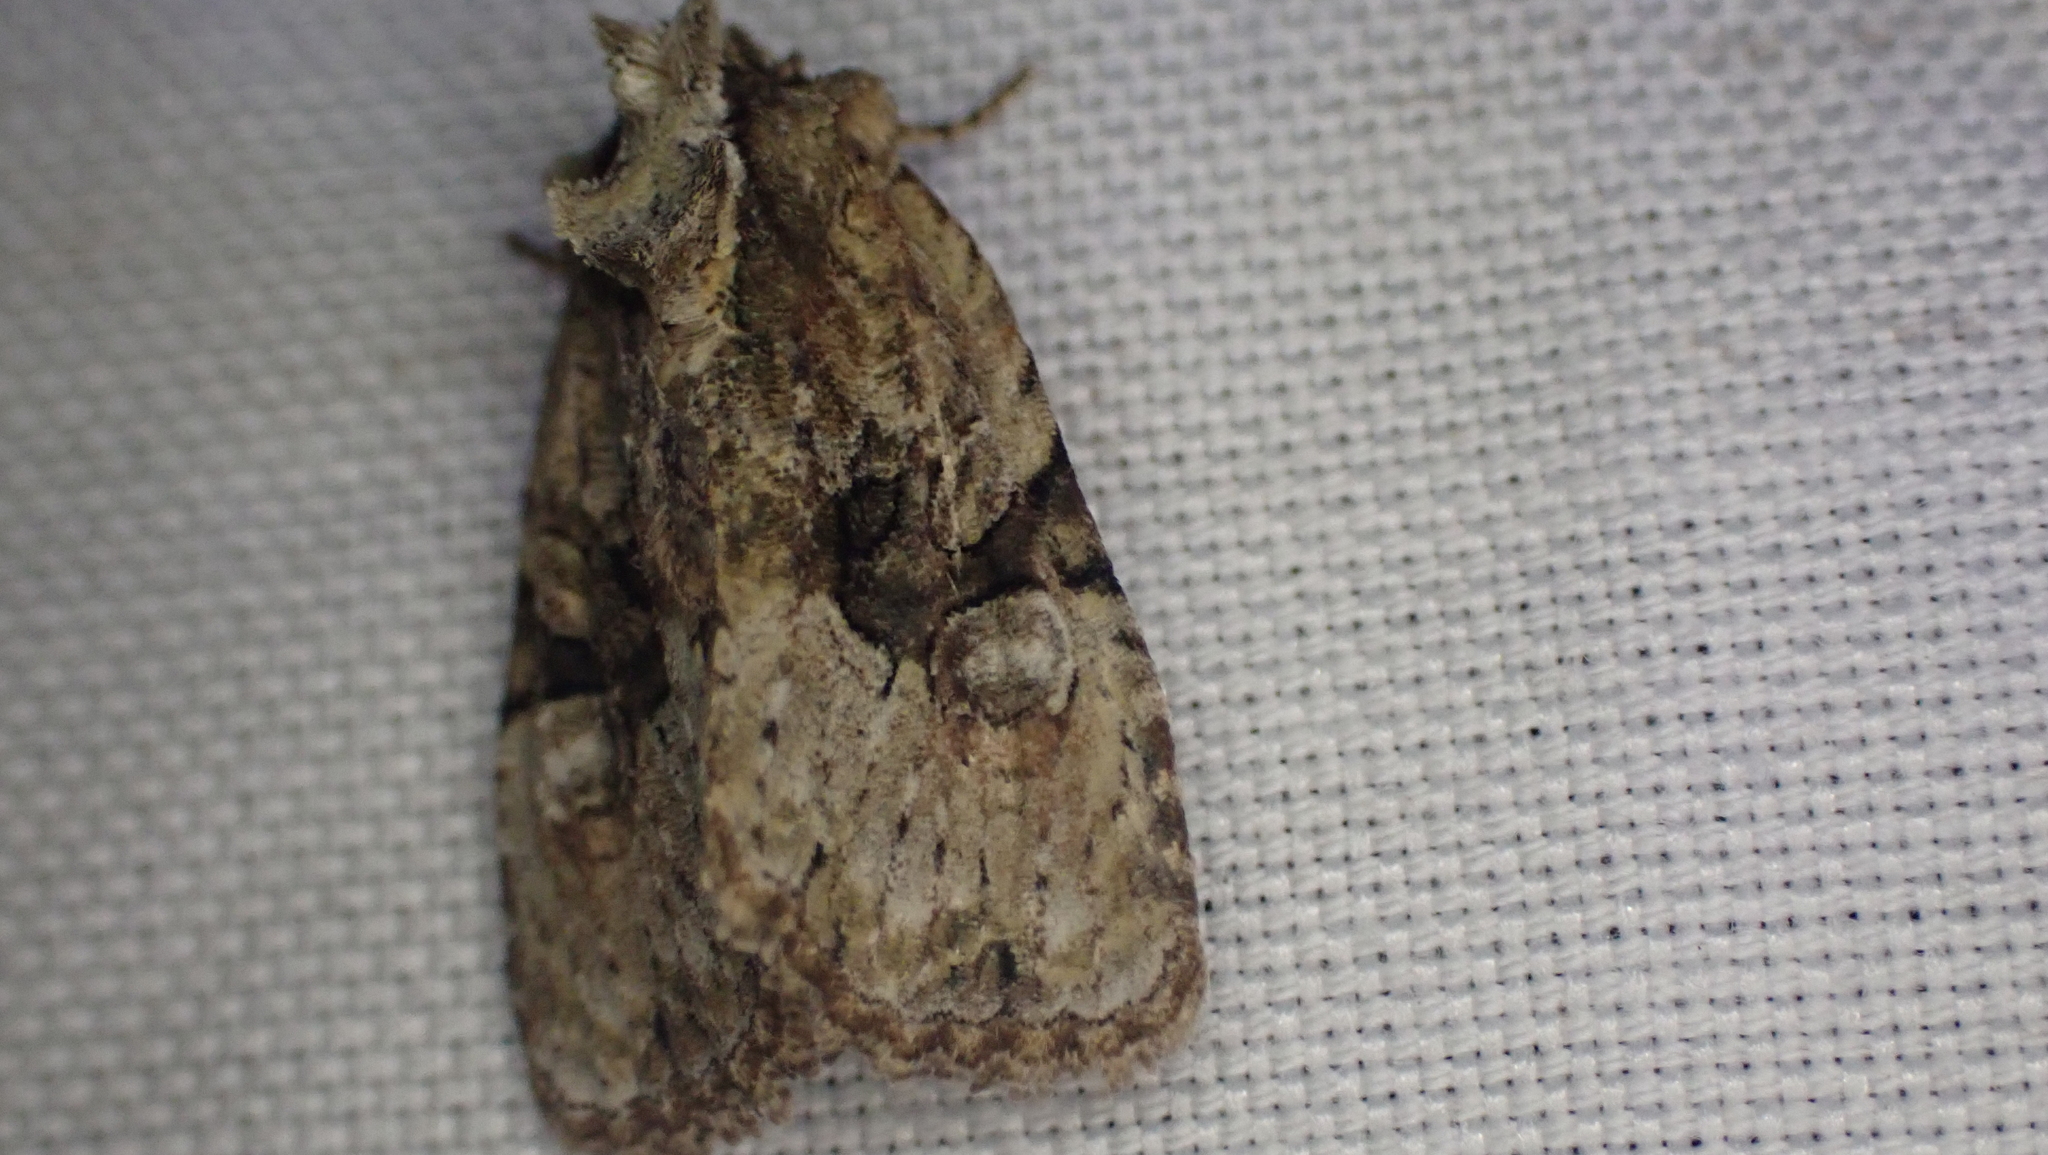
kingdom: Animalia
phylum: Arthropoda
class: Insecta
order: Lepidoptera
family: Noctuidae
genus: Oligia
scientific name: Oligia modica
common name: Black-banded brocade
